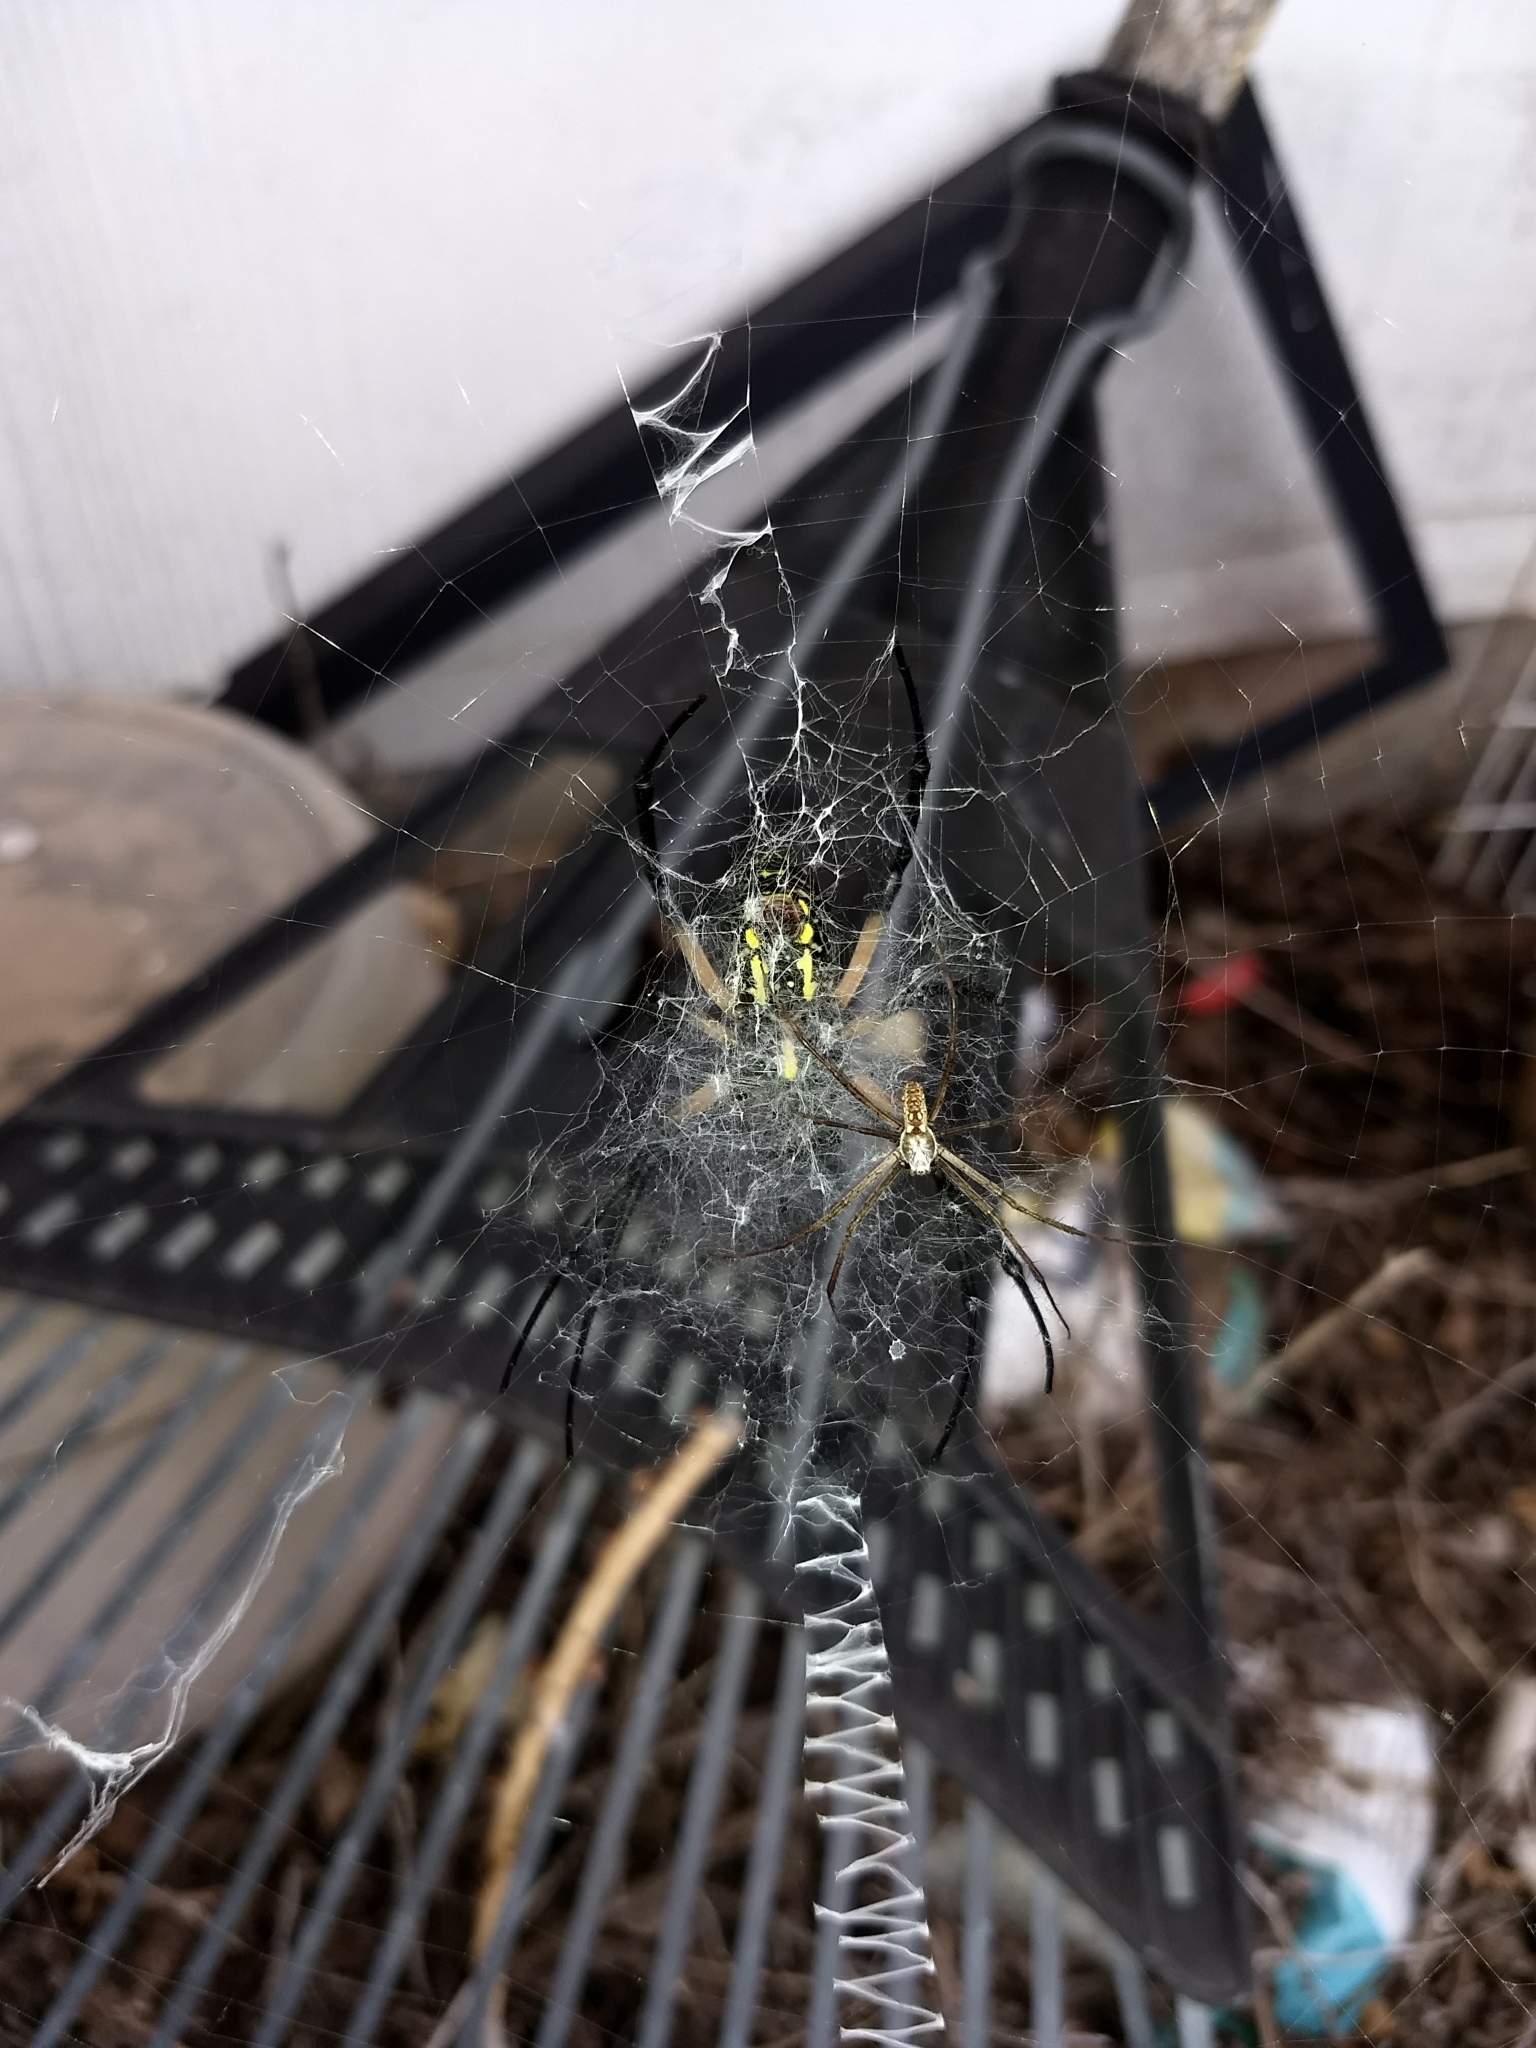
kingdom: Animalia
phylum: Arthropoda
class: Arachnida
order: Araneae
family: Araneidae
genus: Argiope
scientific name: Argiope aurantia
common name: Orb weavers
